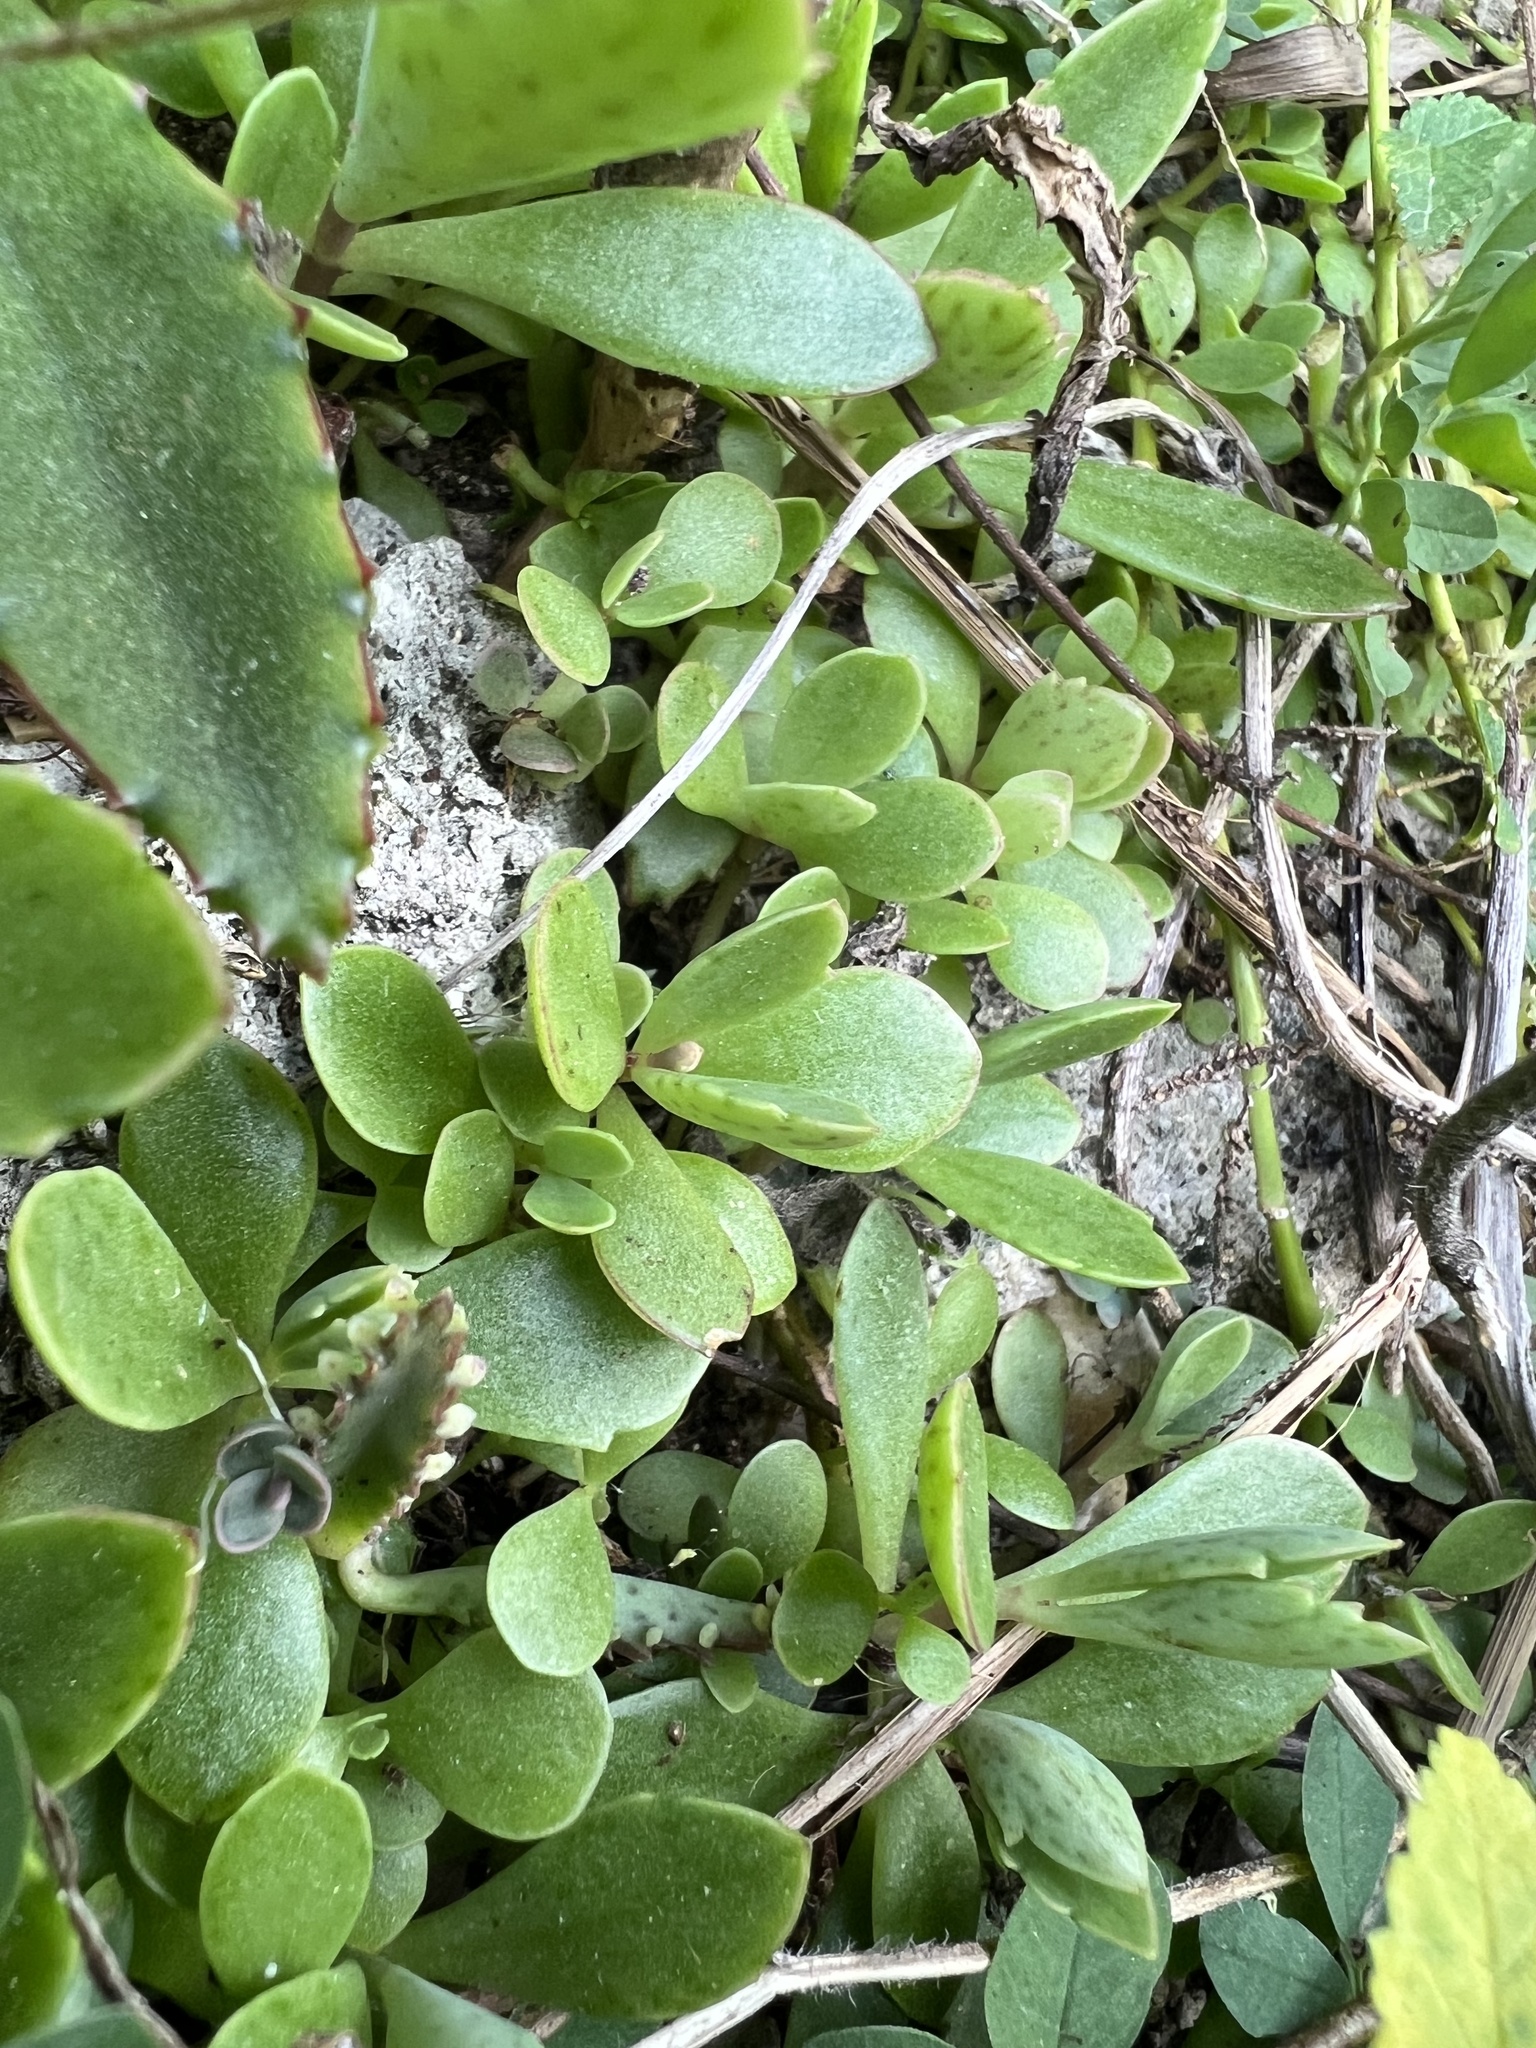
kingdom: Plantae
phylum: Tracheophyta
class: Magnoliopsida
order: Saxifragales
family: Crassulaceae
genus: Kalanchoe
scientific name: Kalanchoe houghtonii
